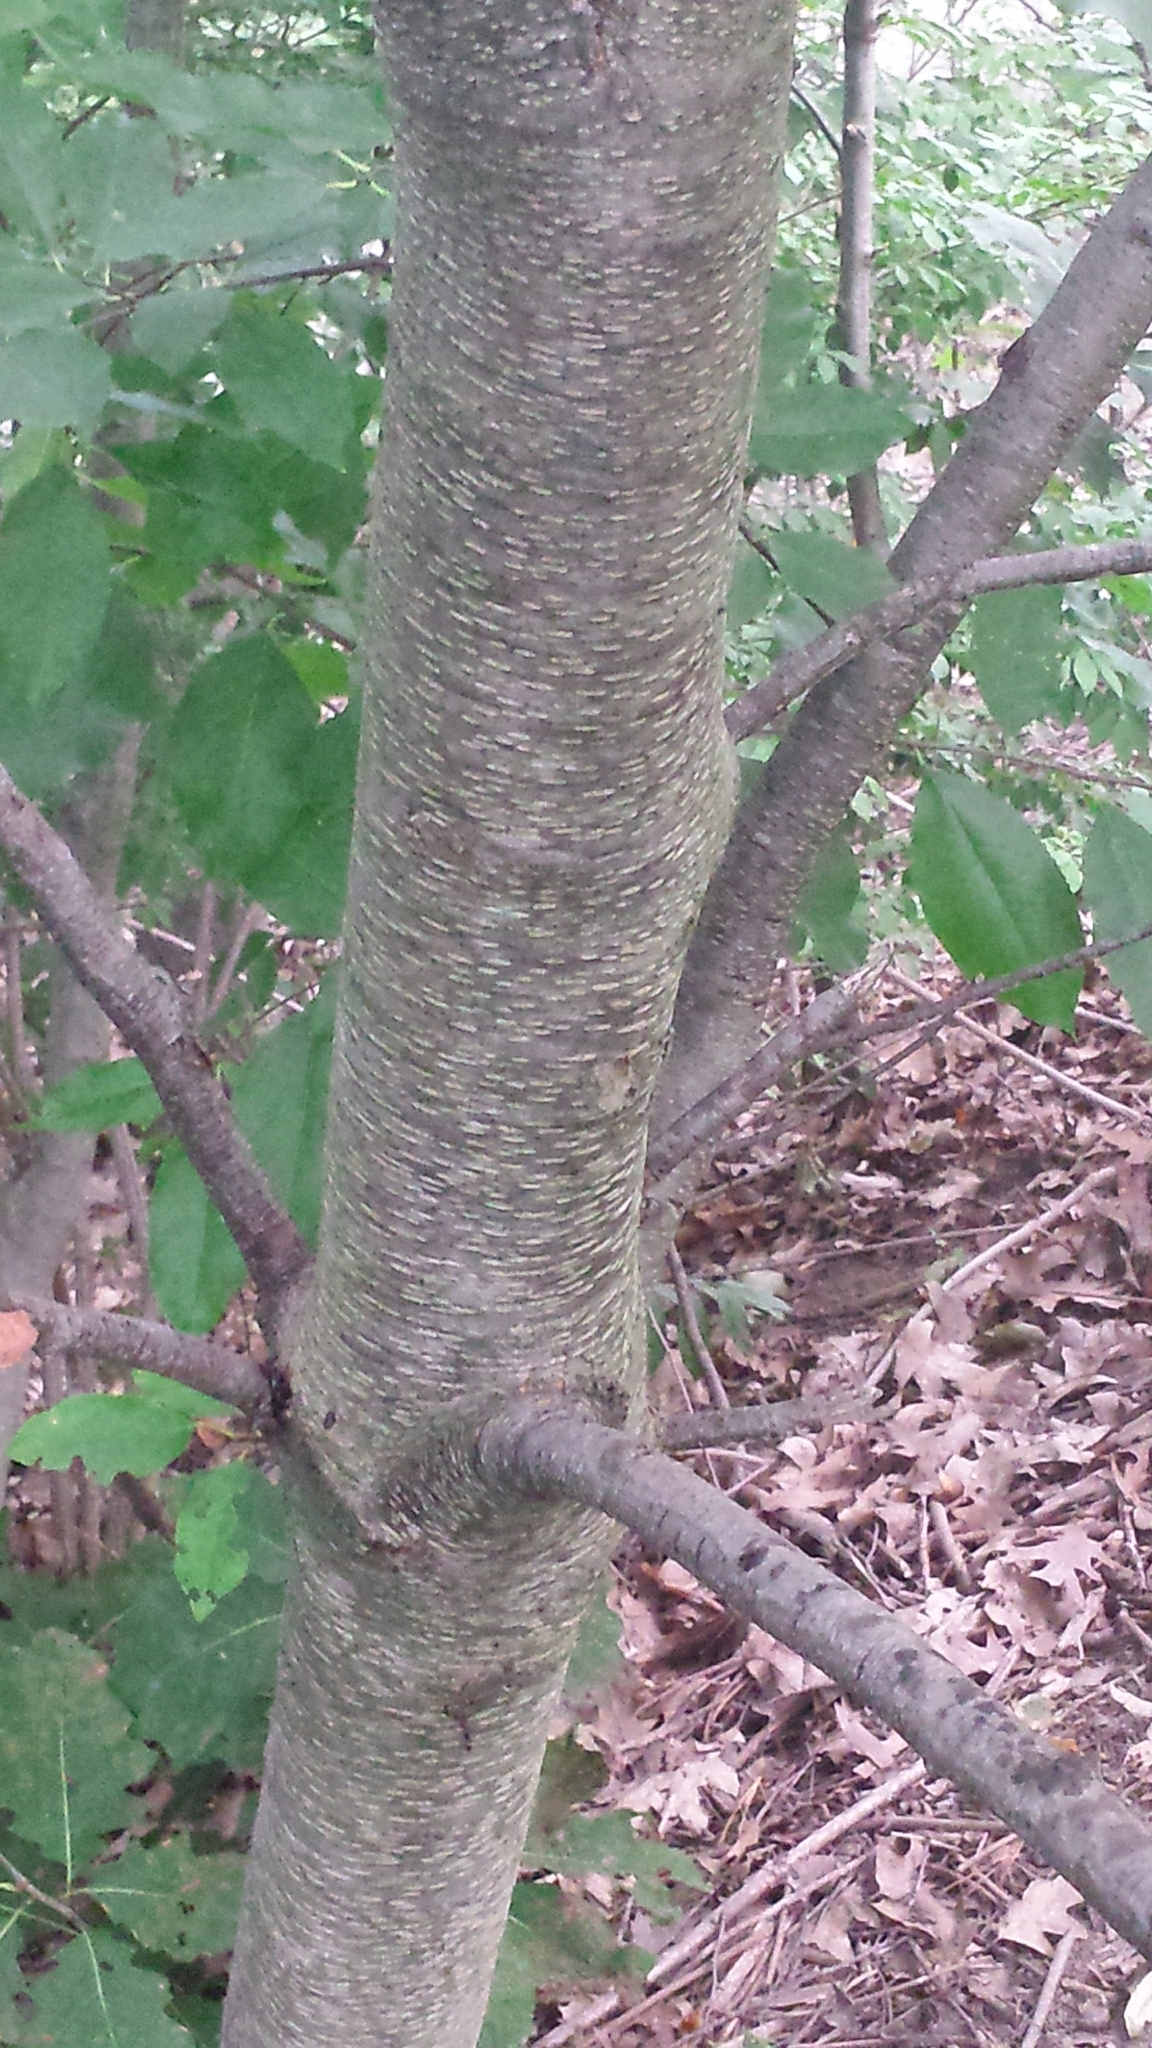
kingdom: Plantae
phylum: Tracheophyta
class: Magnoliopsida
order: Rosales
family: Rosaceae
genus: Prunus
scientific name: Prunus serotina
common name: Black cherry
